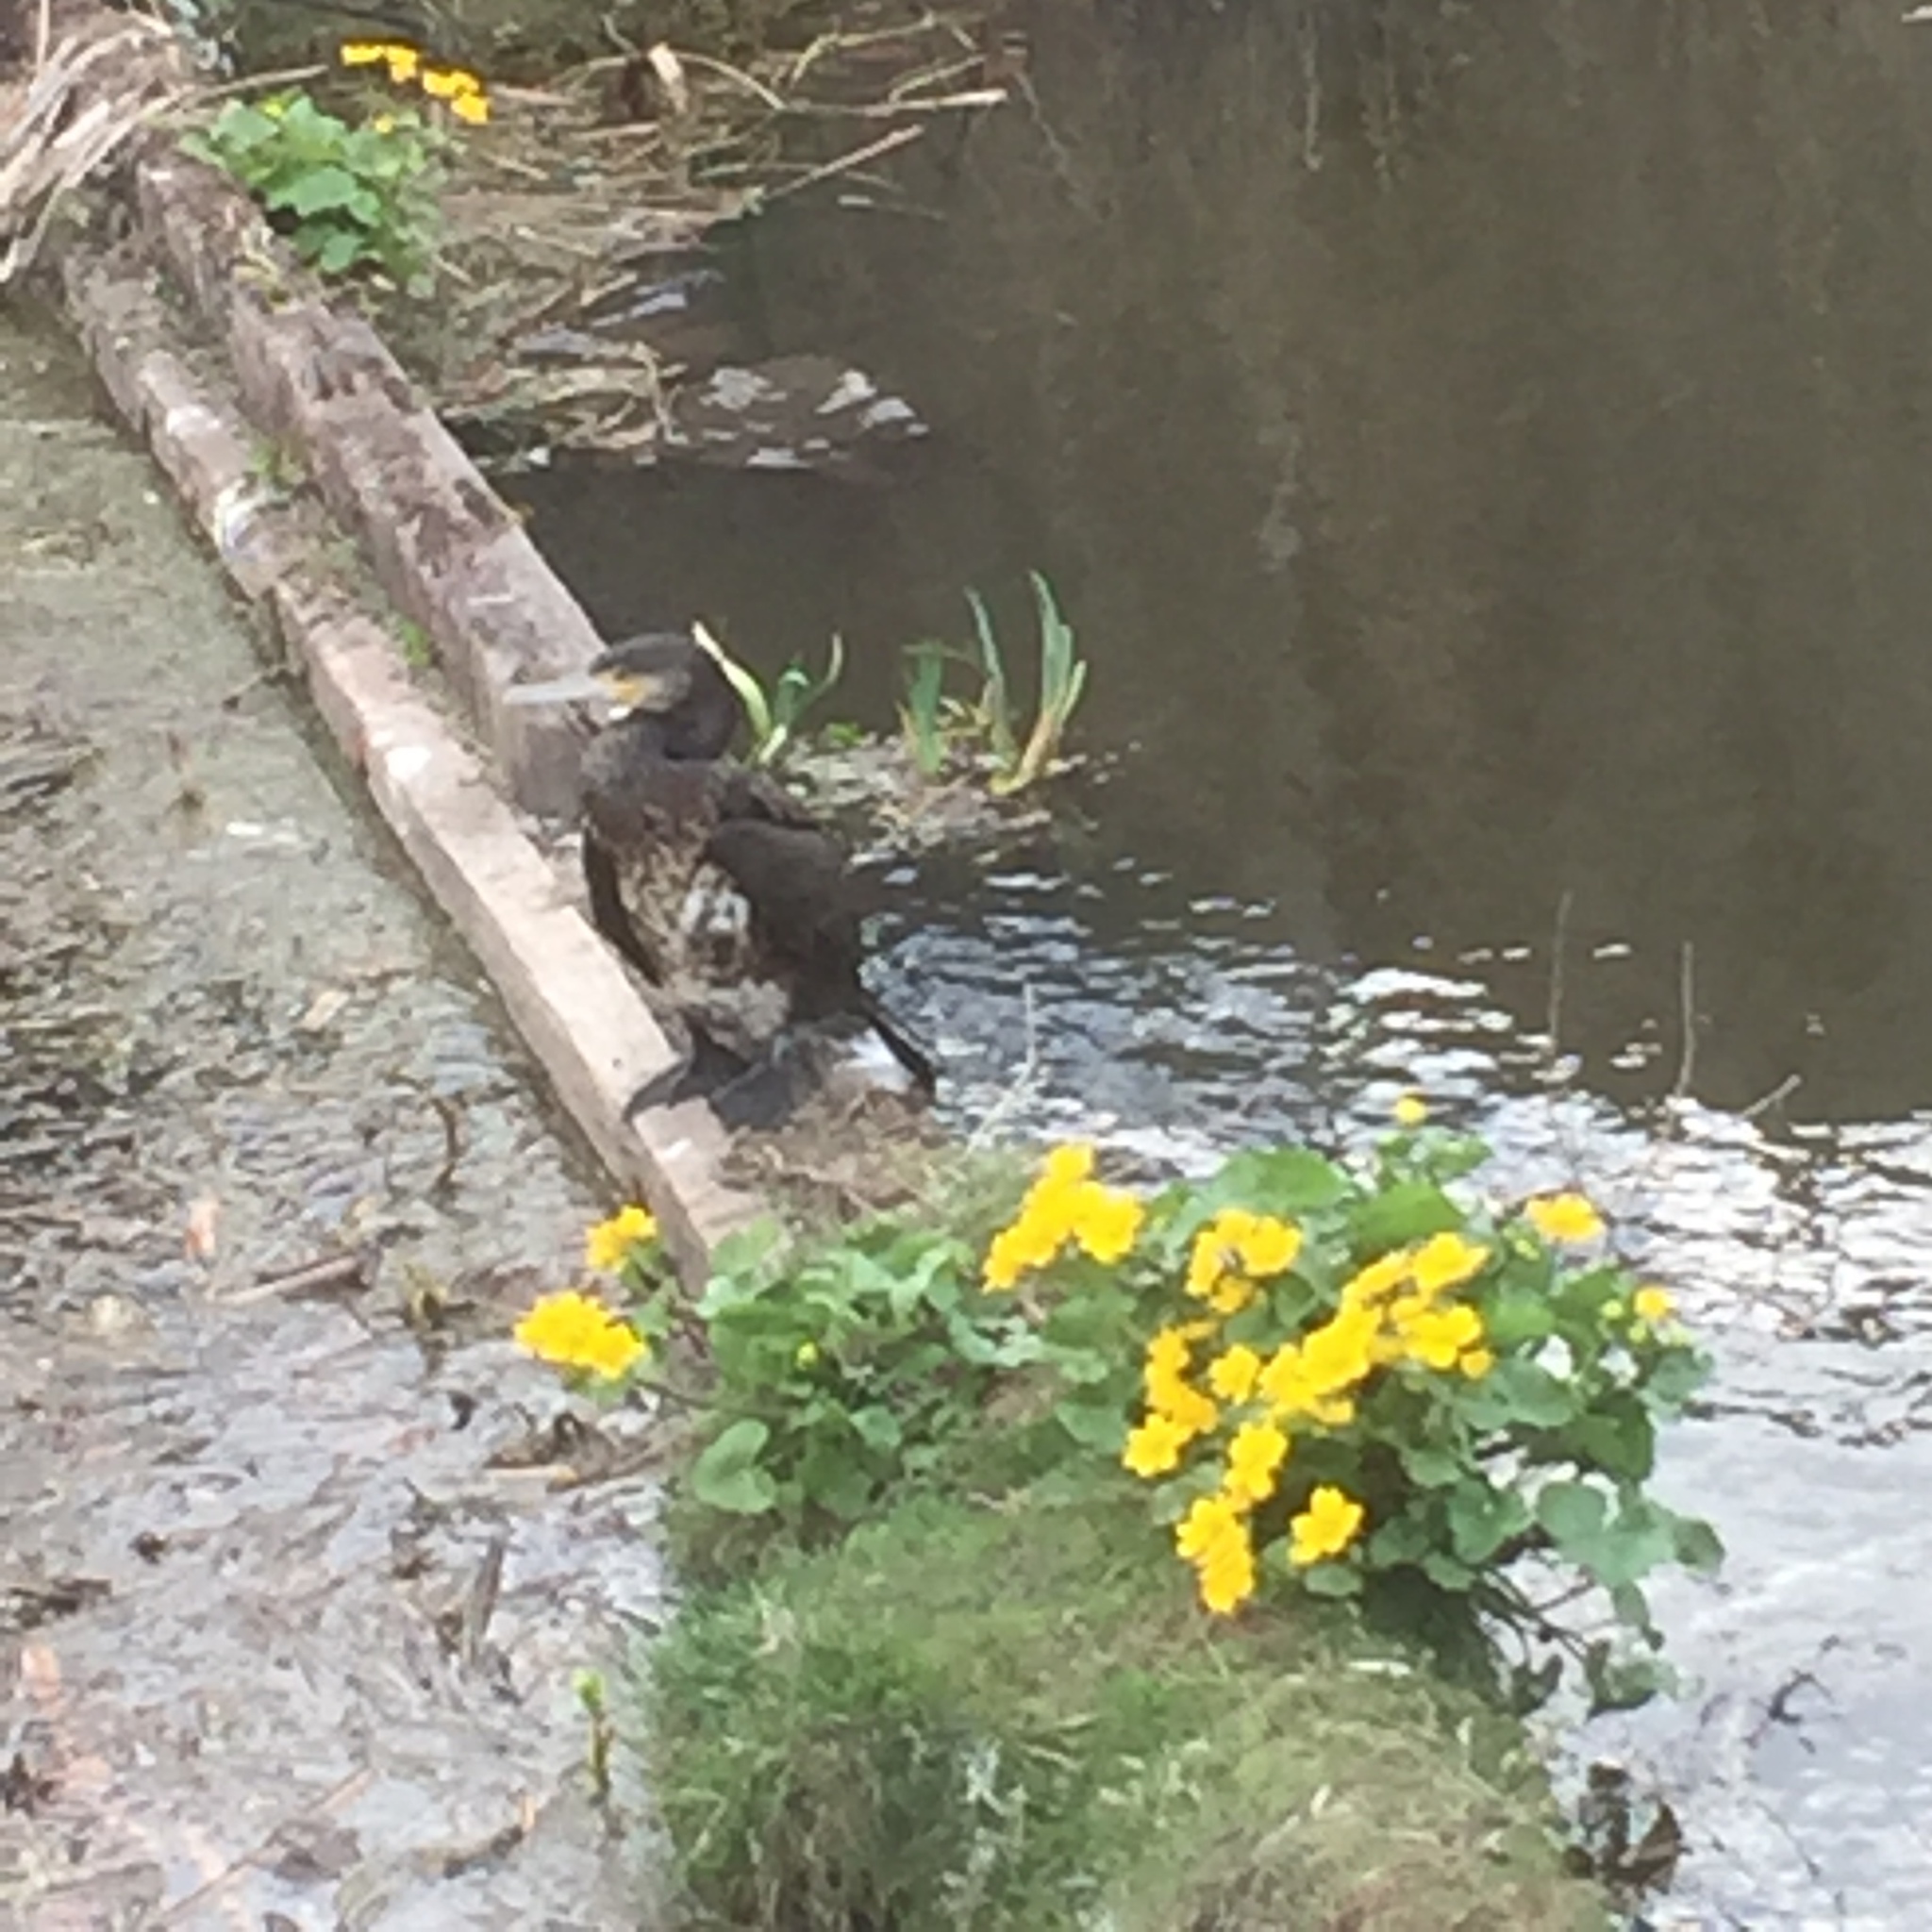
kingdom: Animalia
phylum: Chordata
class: Aves
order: Suliformes
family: Phalacrocoracidae
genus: Phalacrocorax
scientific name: Phalacrocorax carbo
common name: Great cormorant
